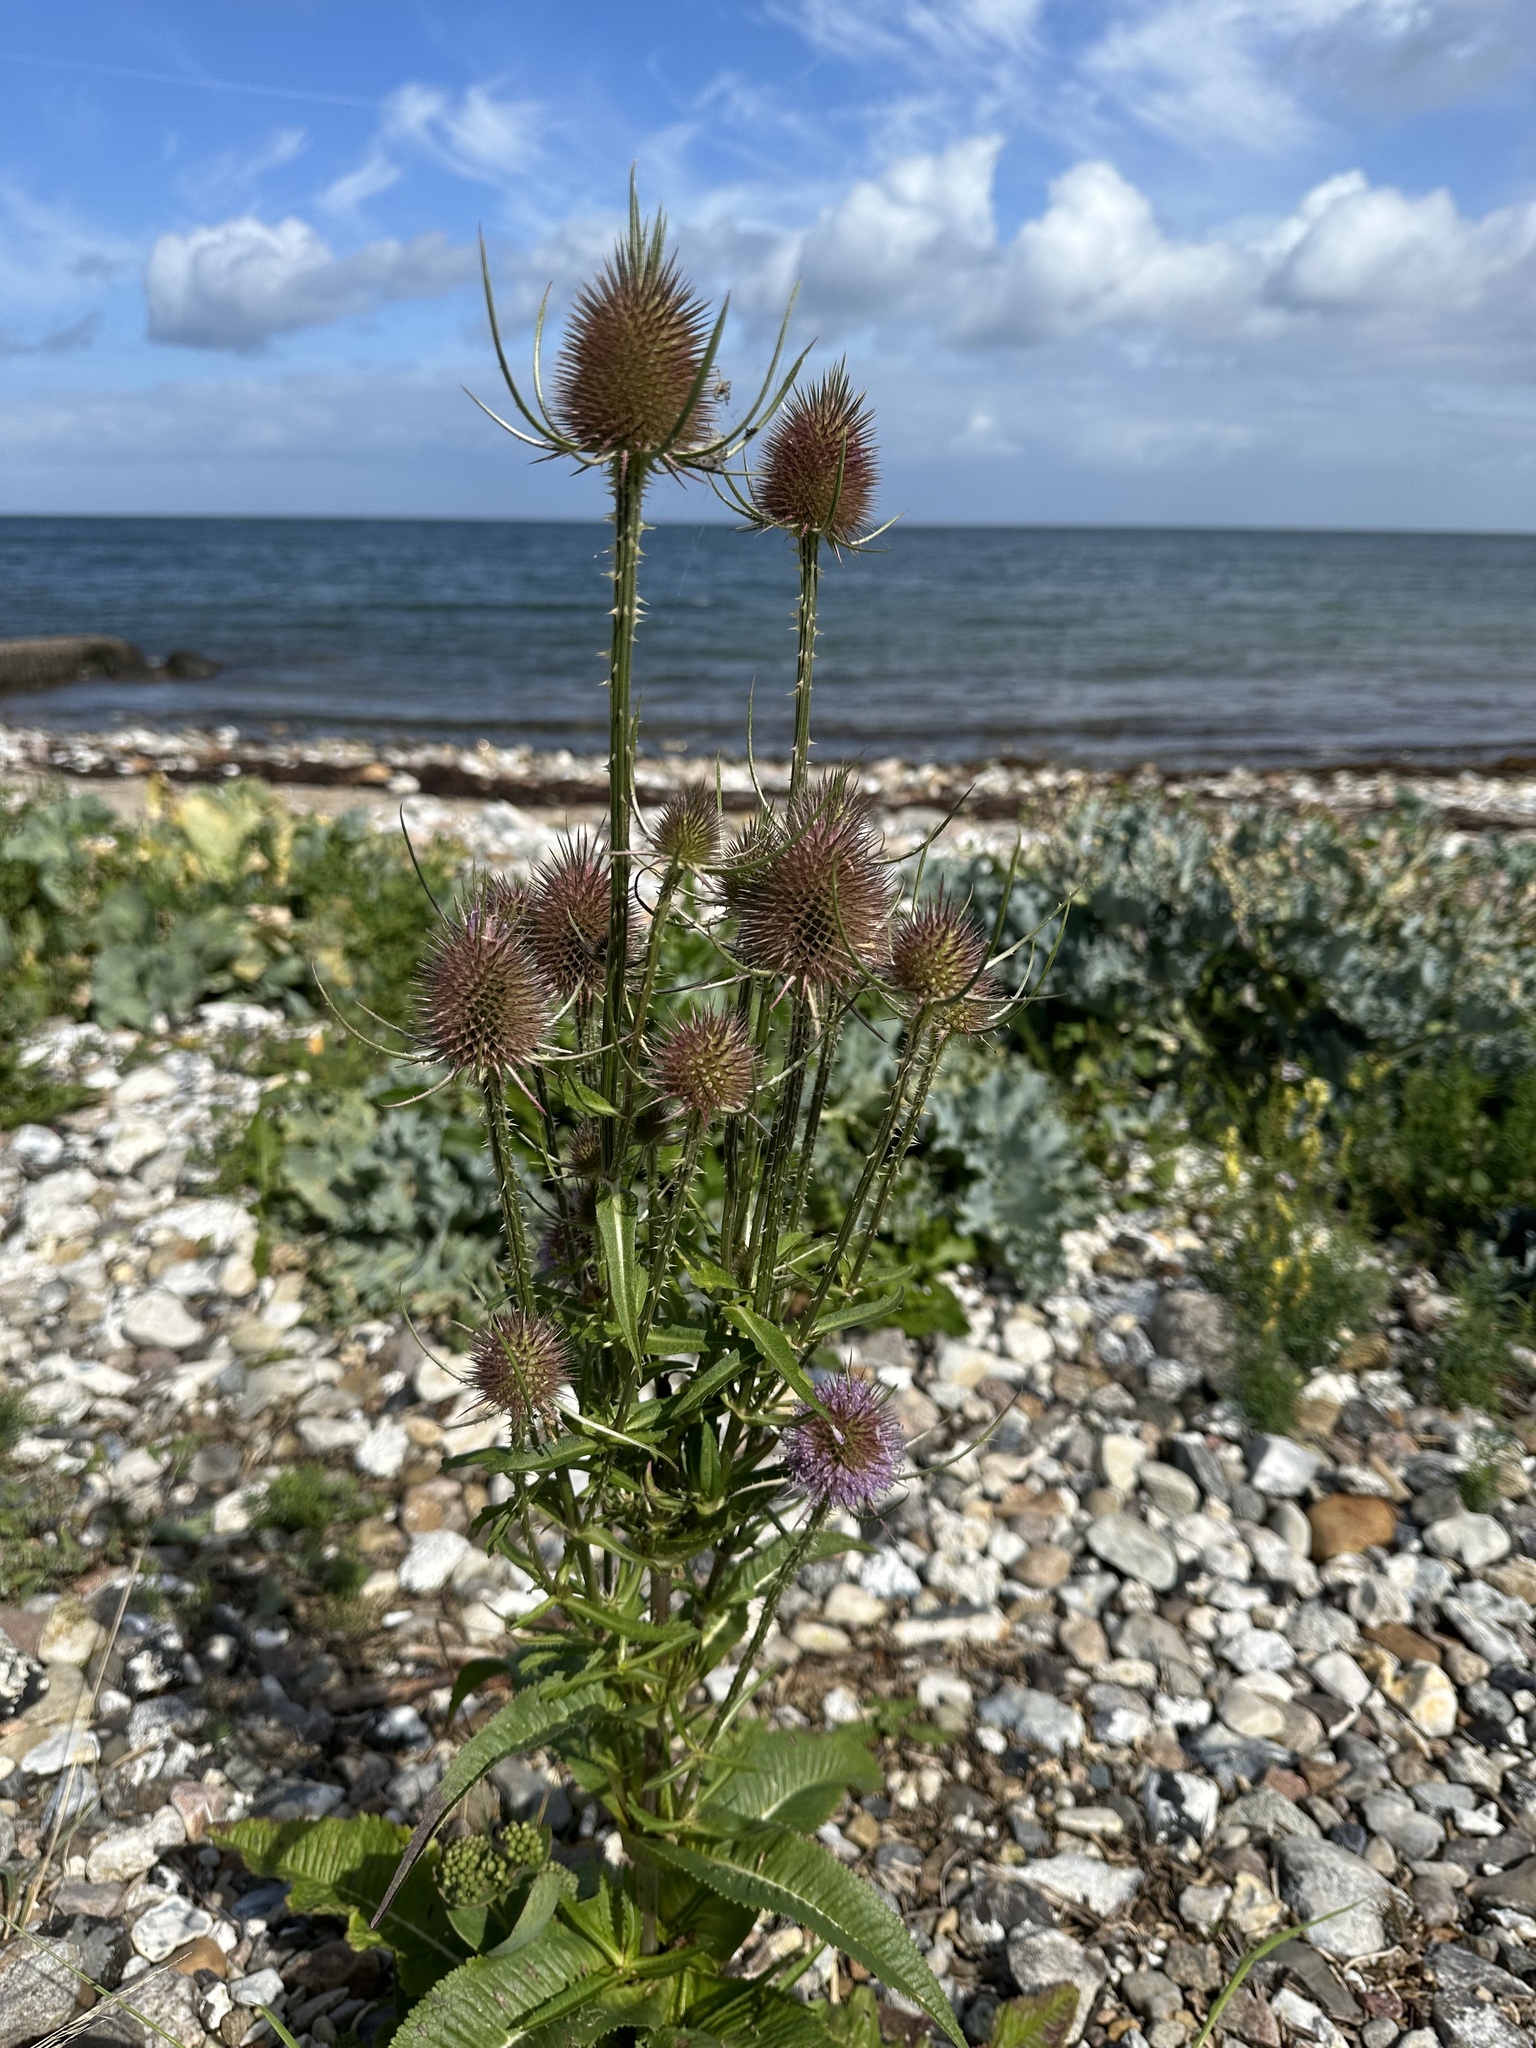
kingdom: Plantae
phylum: Tracheophyta
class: Magnoliopsida
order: Dipsacales
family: Caprifoliaceae
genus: Dipsacus
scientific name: Dipsacus fullonum
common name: Teasel
